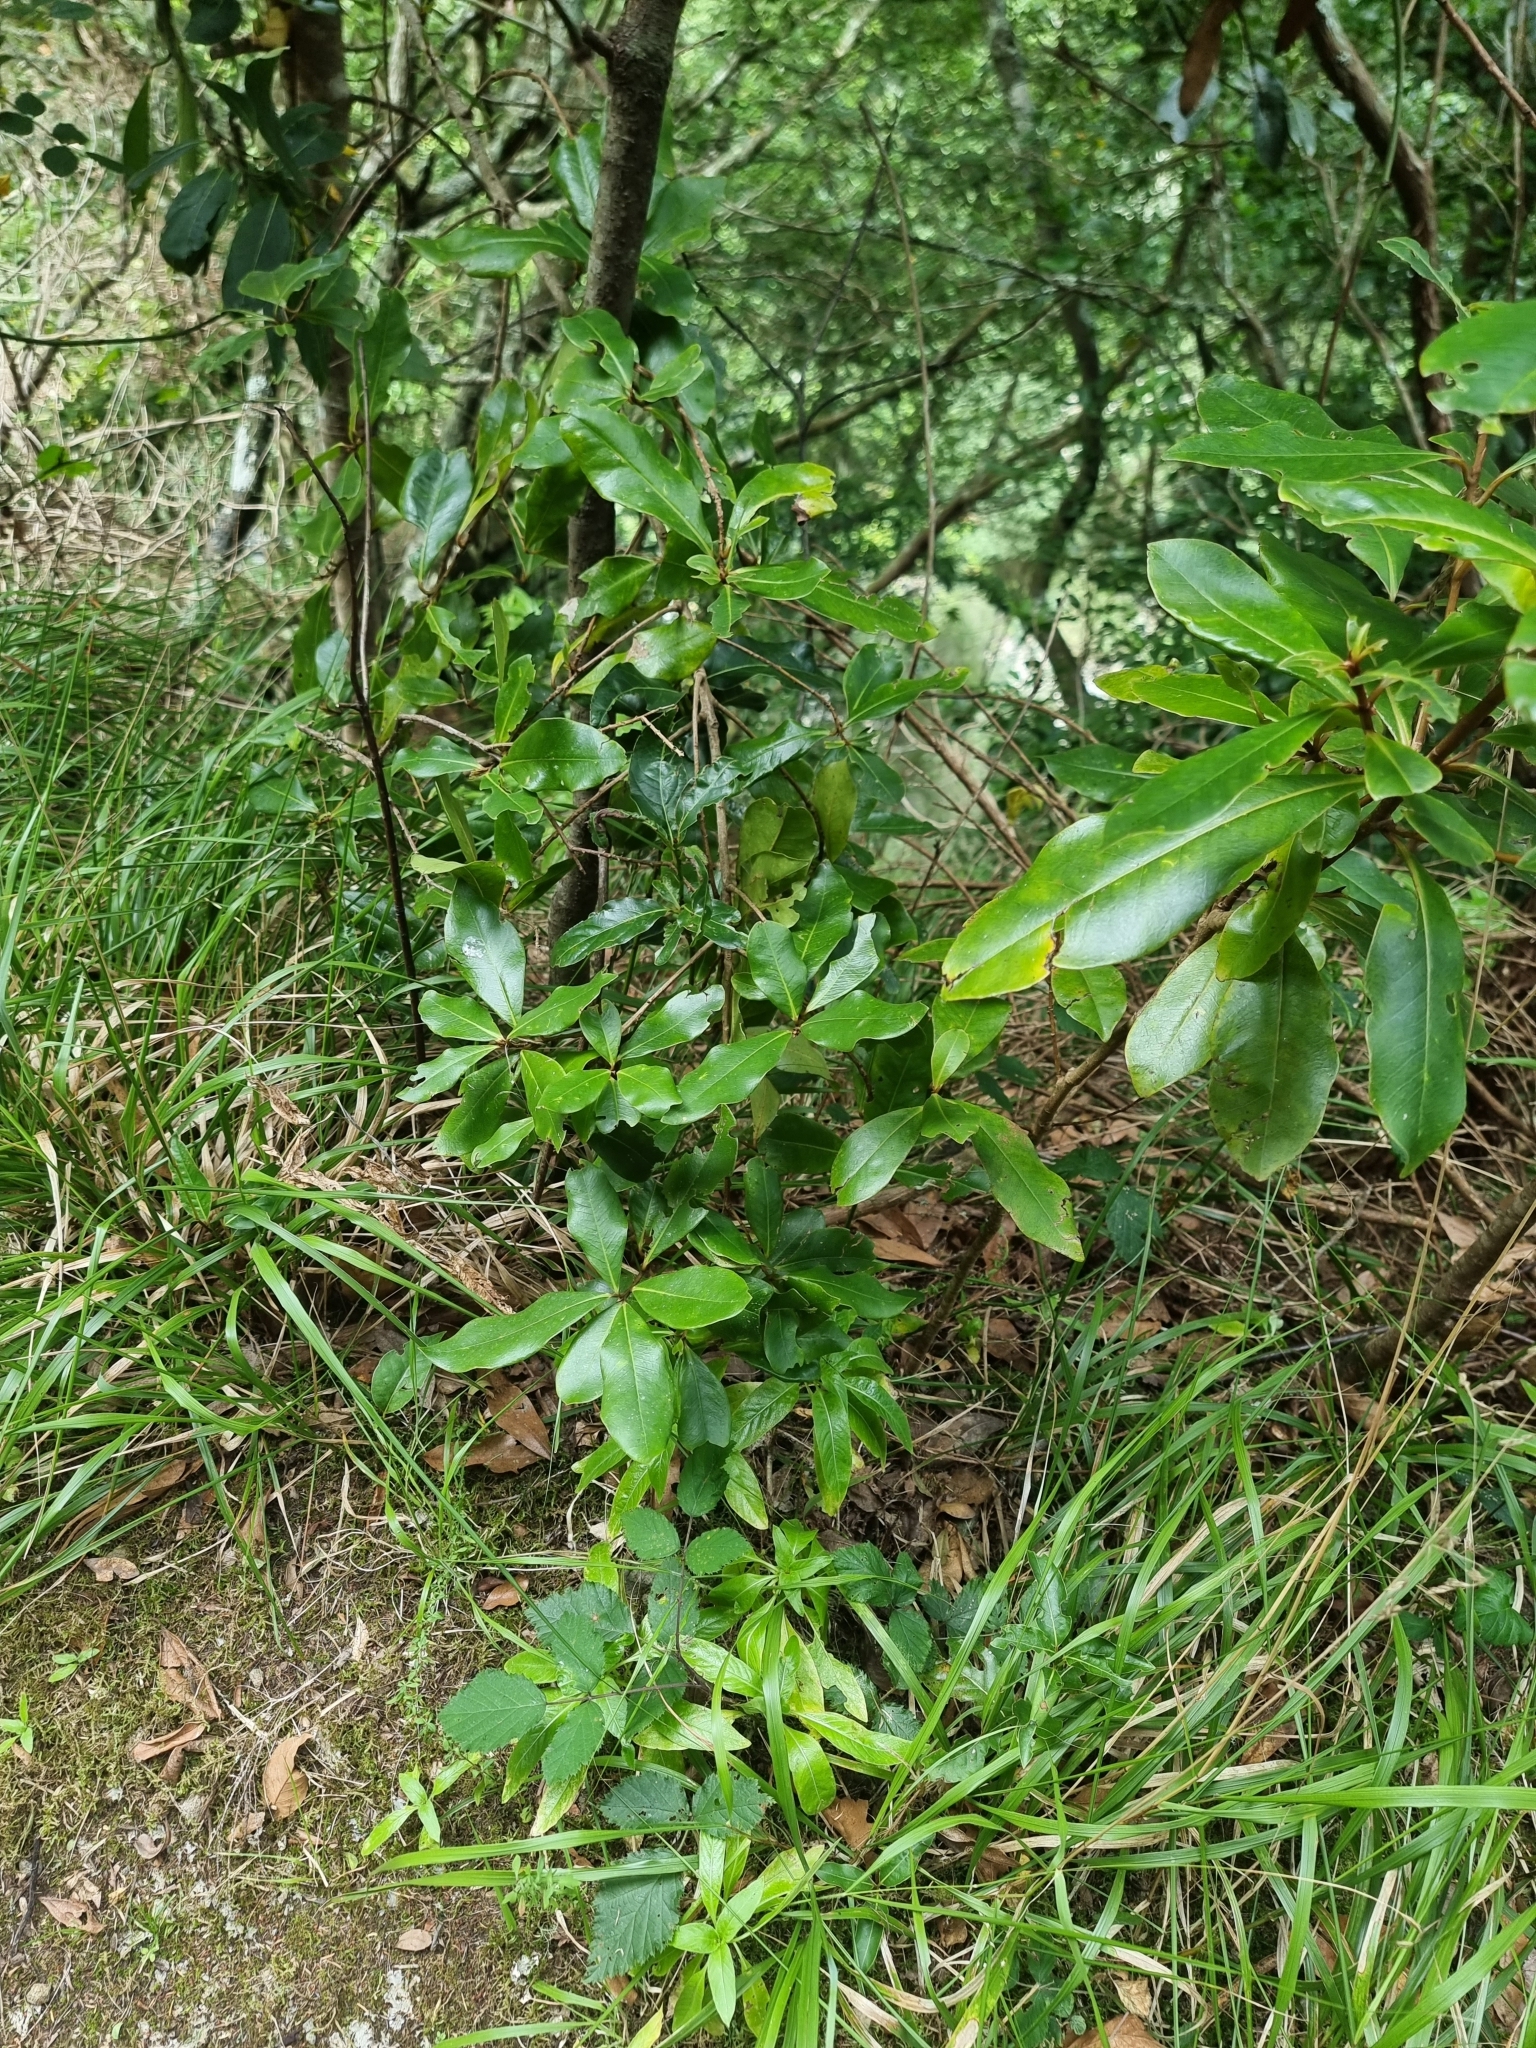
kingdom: Plantae
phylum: Tracheophyta
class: Magnoliopsida
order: Ericales
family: Primulaceae
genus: Heberdenia
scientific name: Heberdenia excelsa
